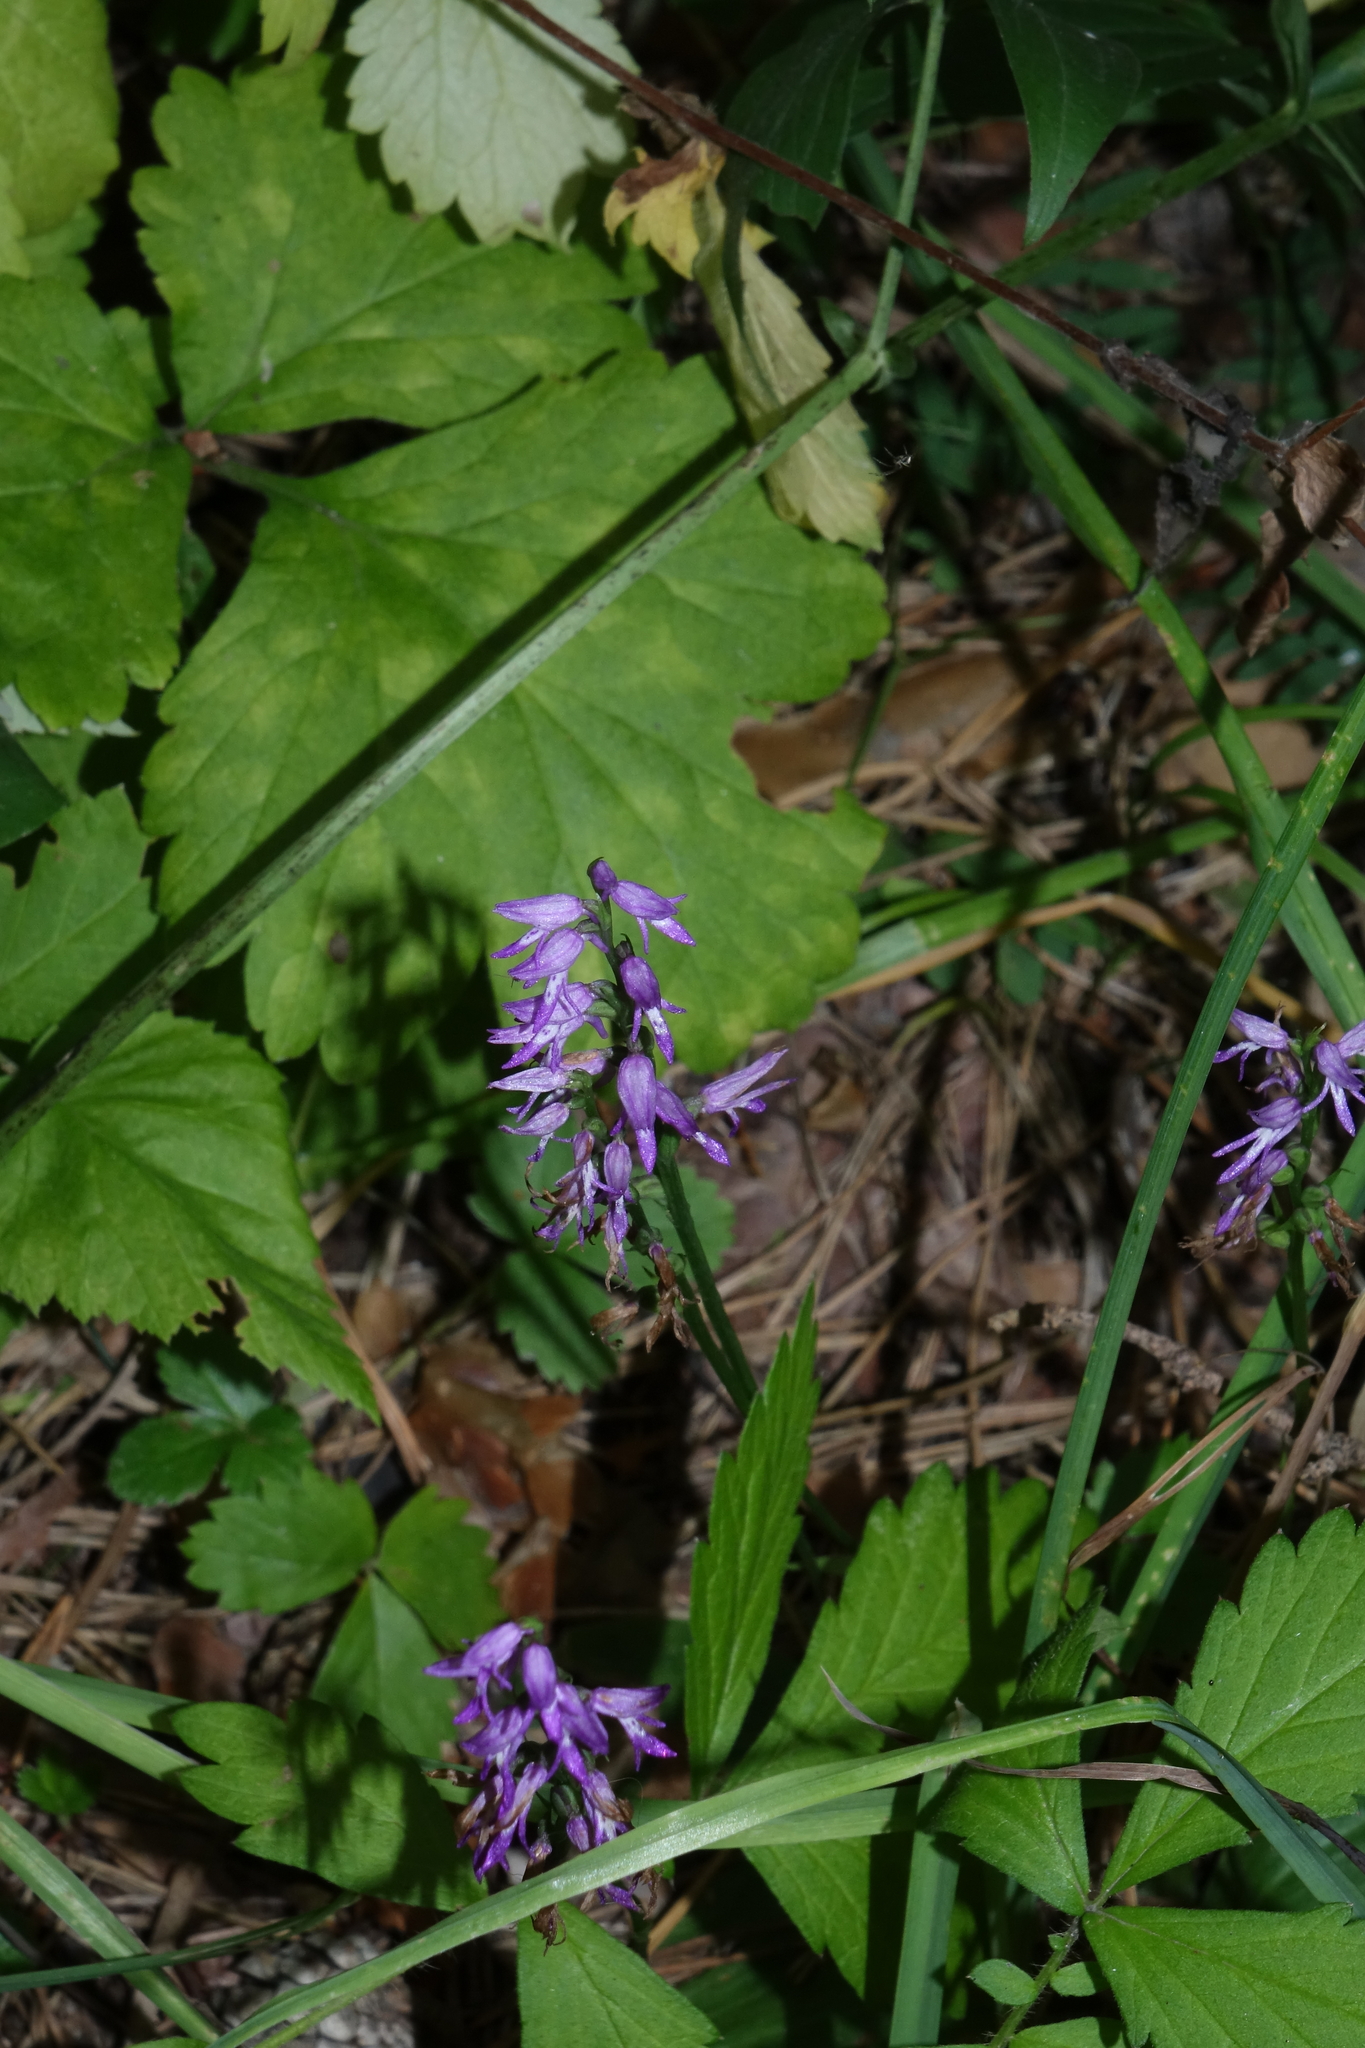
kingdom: Plantae
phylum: Tracheophyta
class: Liliopsida
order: Asparagales
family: Orchidaceae
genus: Hemipilia
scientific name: Hemipilia cucullata
